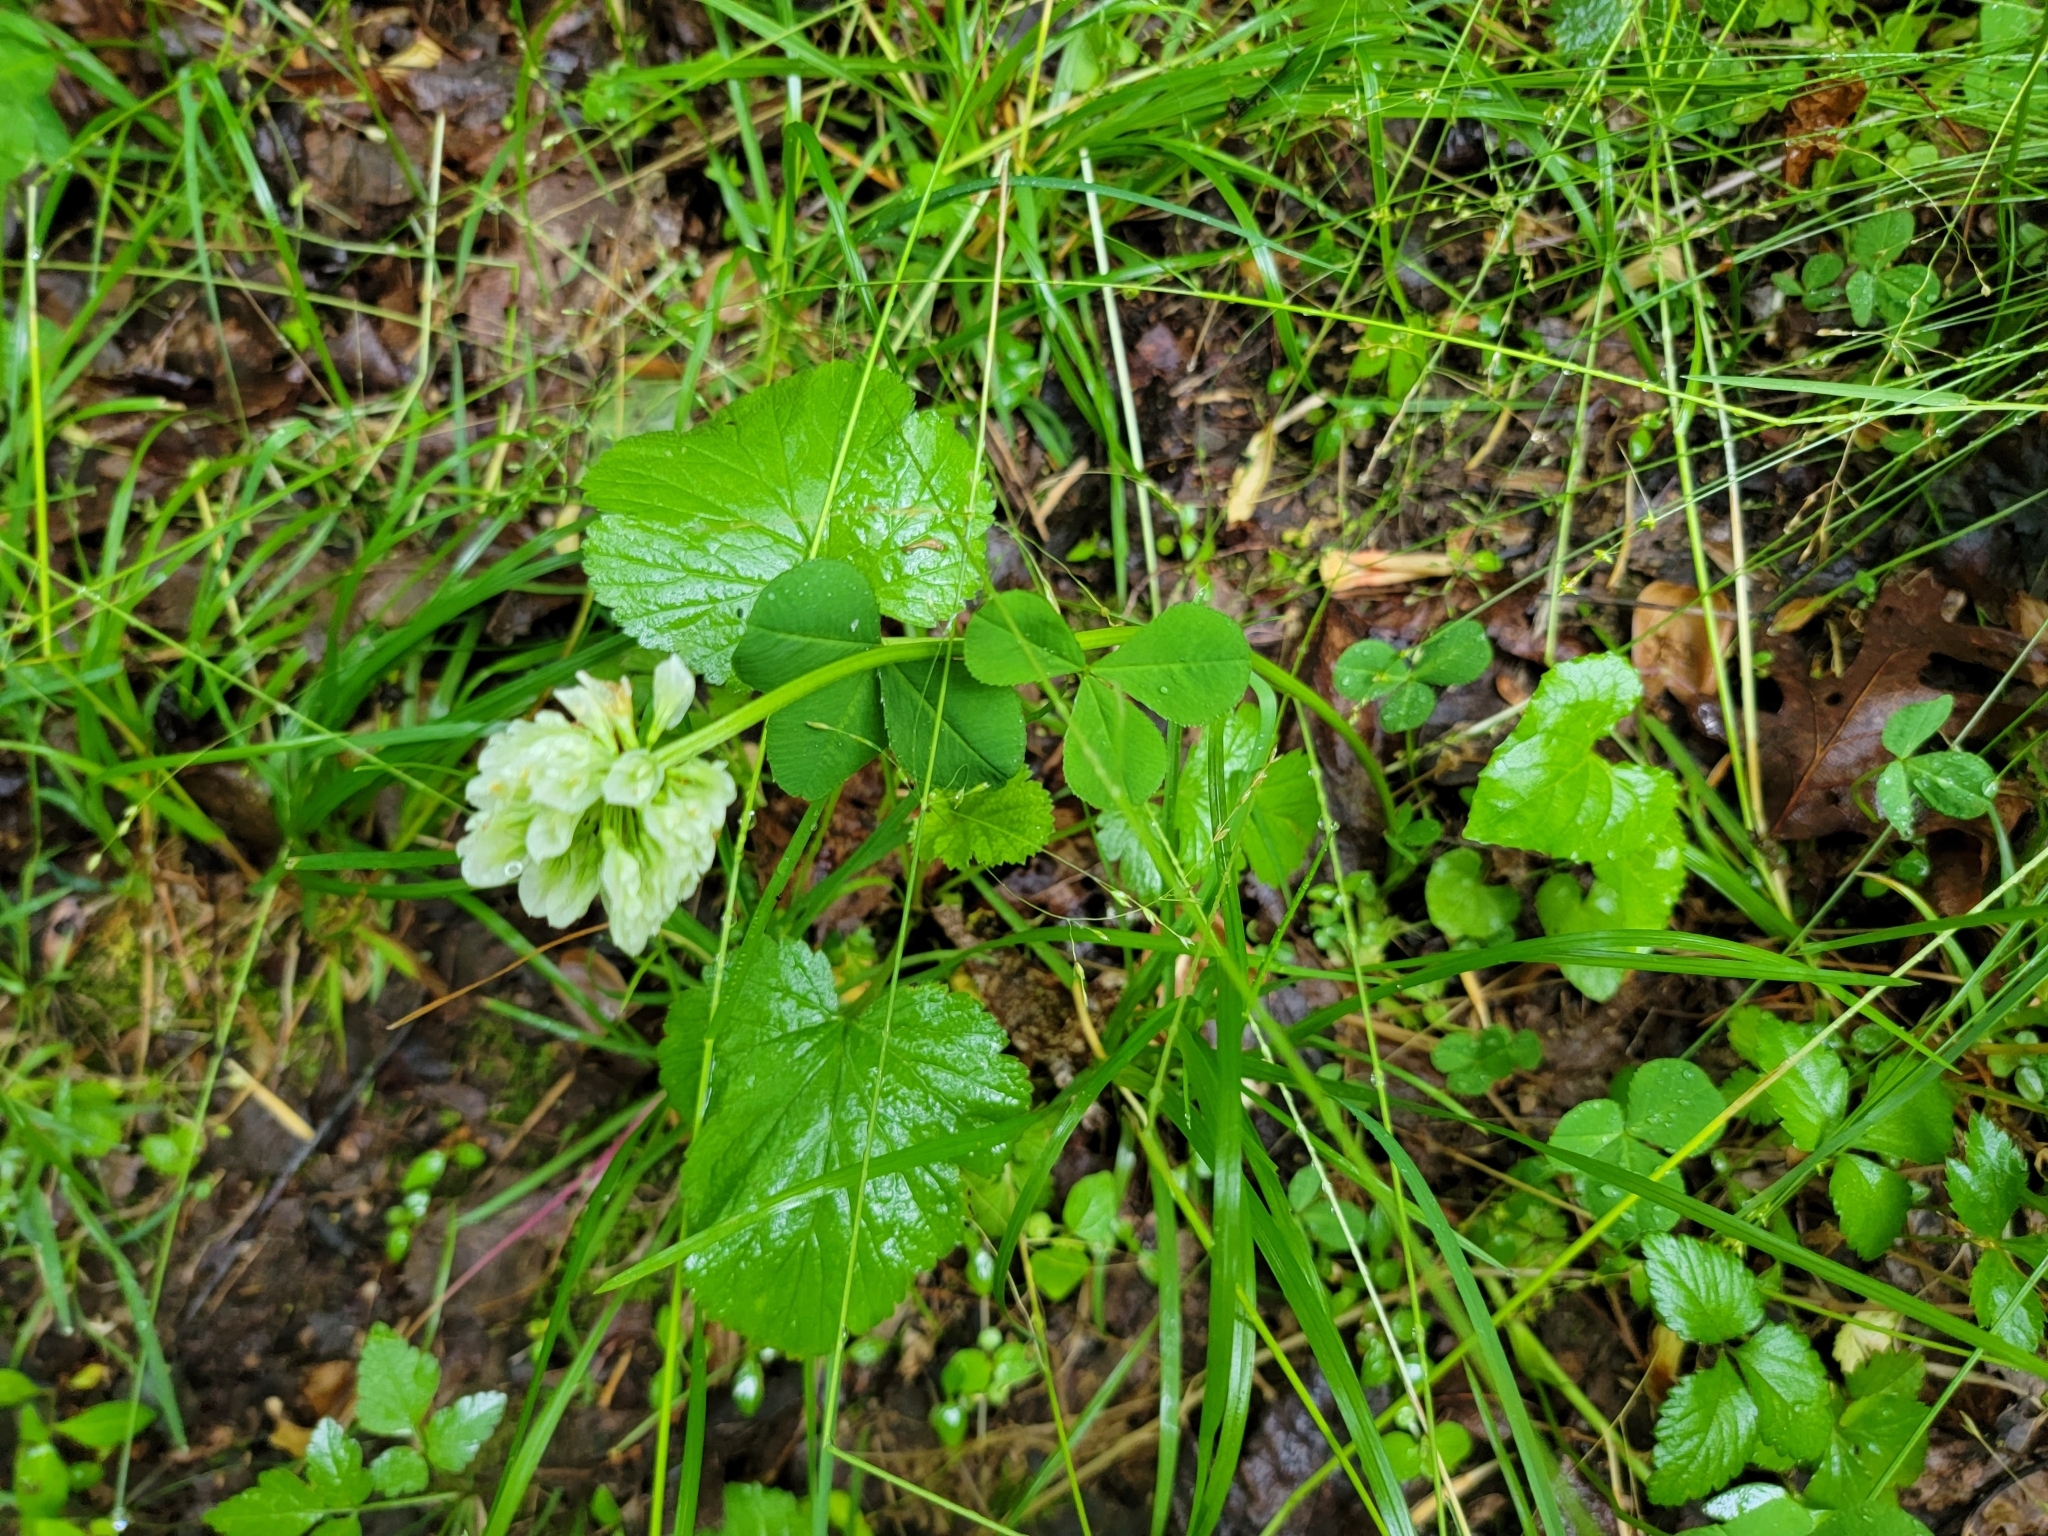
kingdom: Plantae
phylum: Tracheophyta
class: Magnoliopsida
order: Fabales
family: Fabaceae
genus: Trifolium
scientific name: Trifolium stoloniferum
